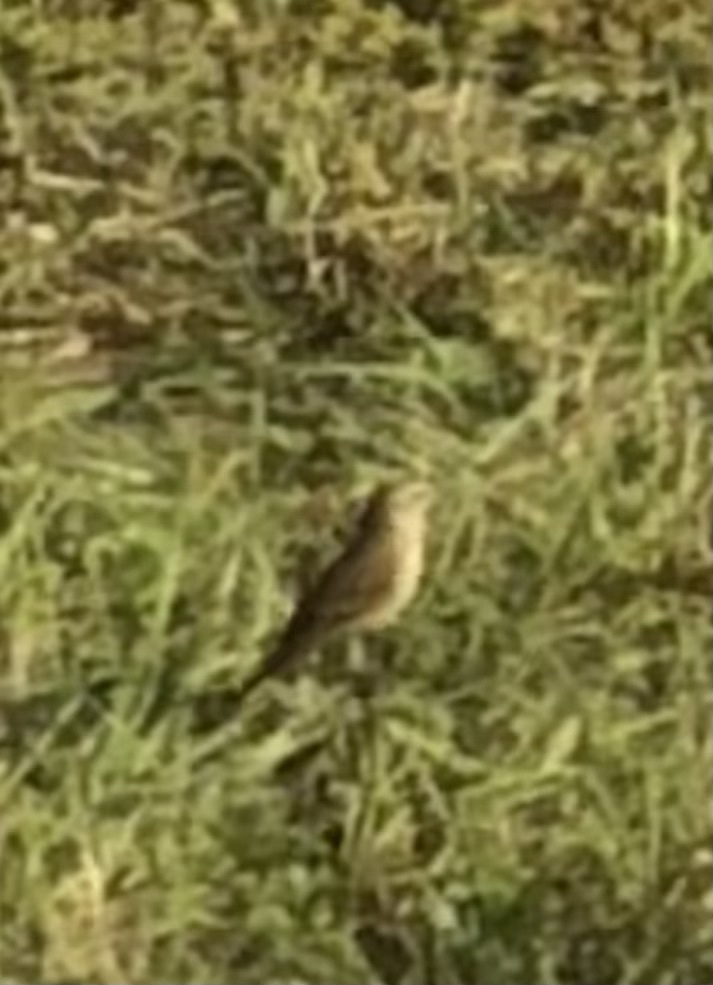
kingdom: Animalia
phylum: Chordata
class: Aves
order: Passeriformes
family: Parulidae
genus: Setophaga
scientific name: Setophaga palmarum
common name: Palm warbler
